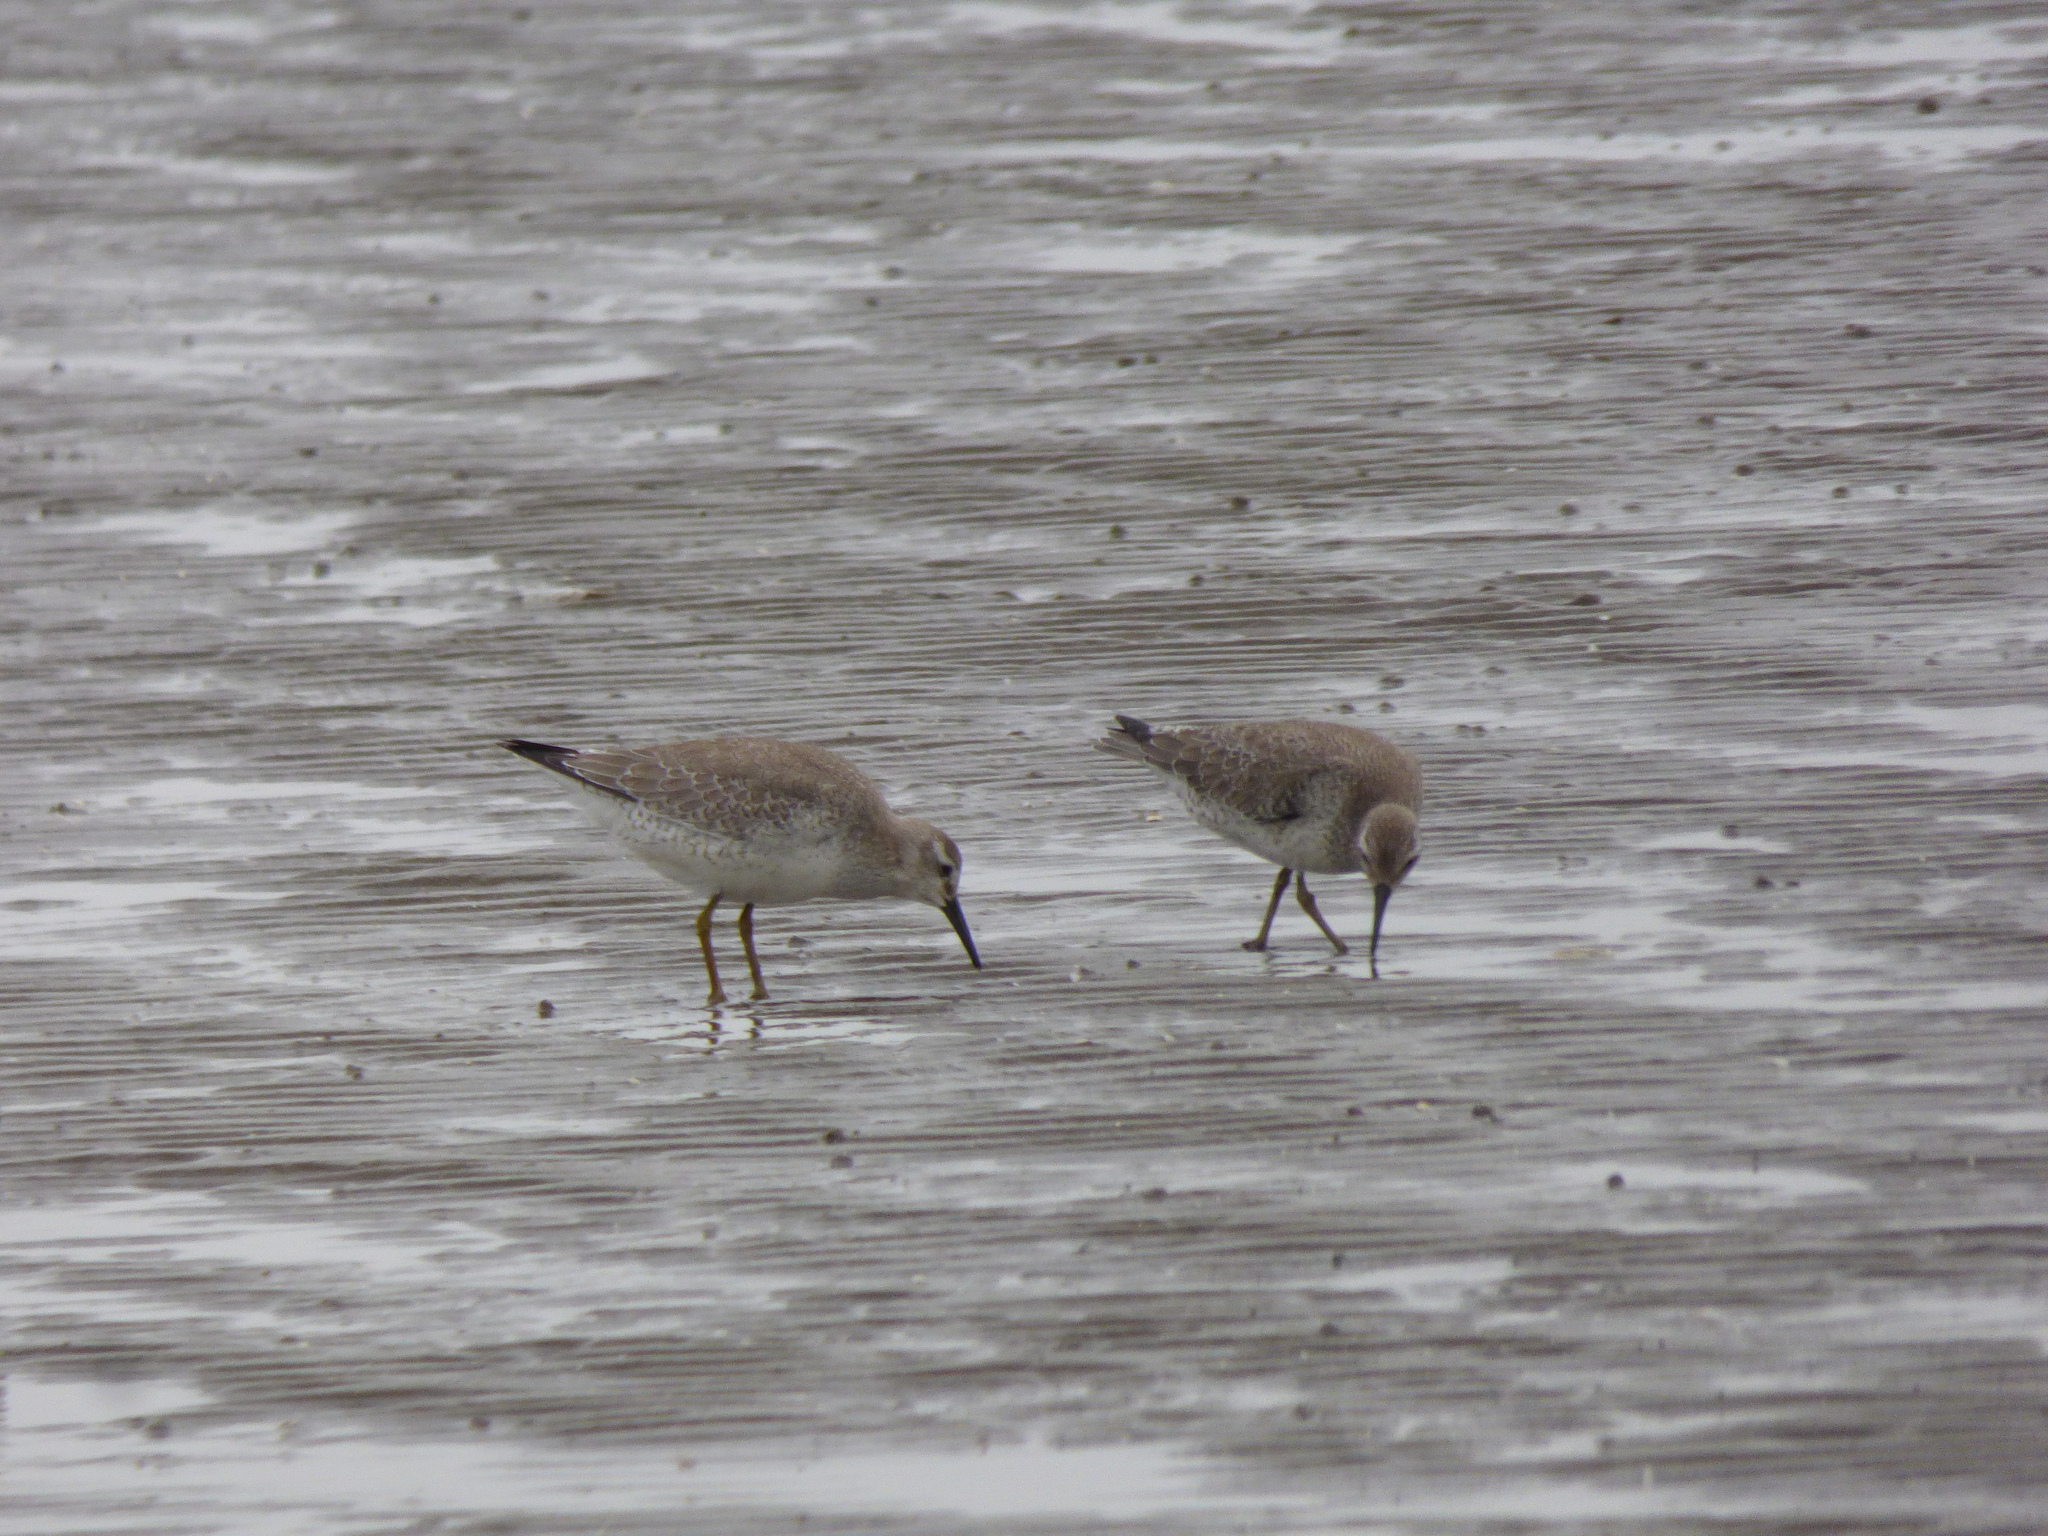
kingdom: Animalia
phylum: Chordata
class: Aves
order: Charadriiformes
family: Scolopacidae
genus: Calidris
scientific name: Calidris canutus
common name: Red knot
